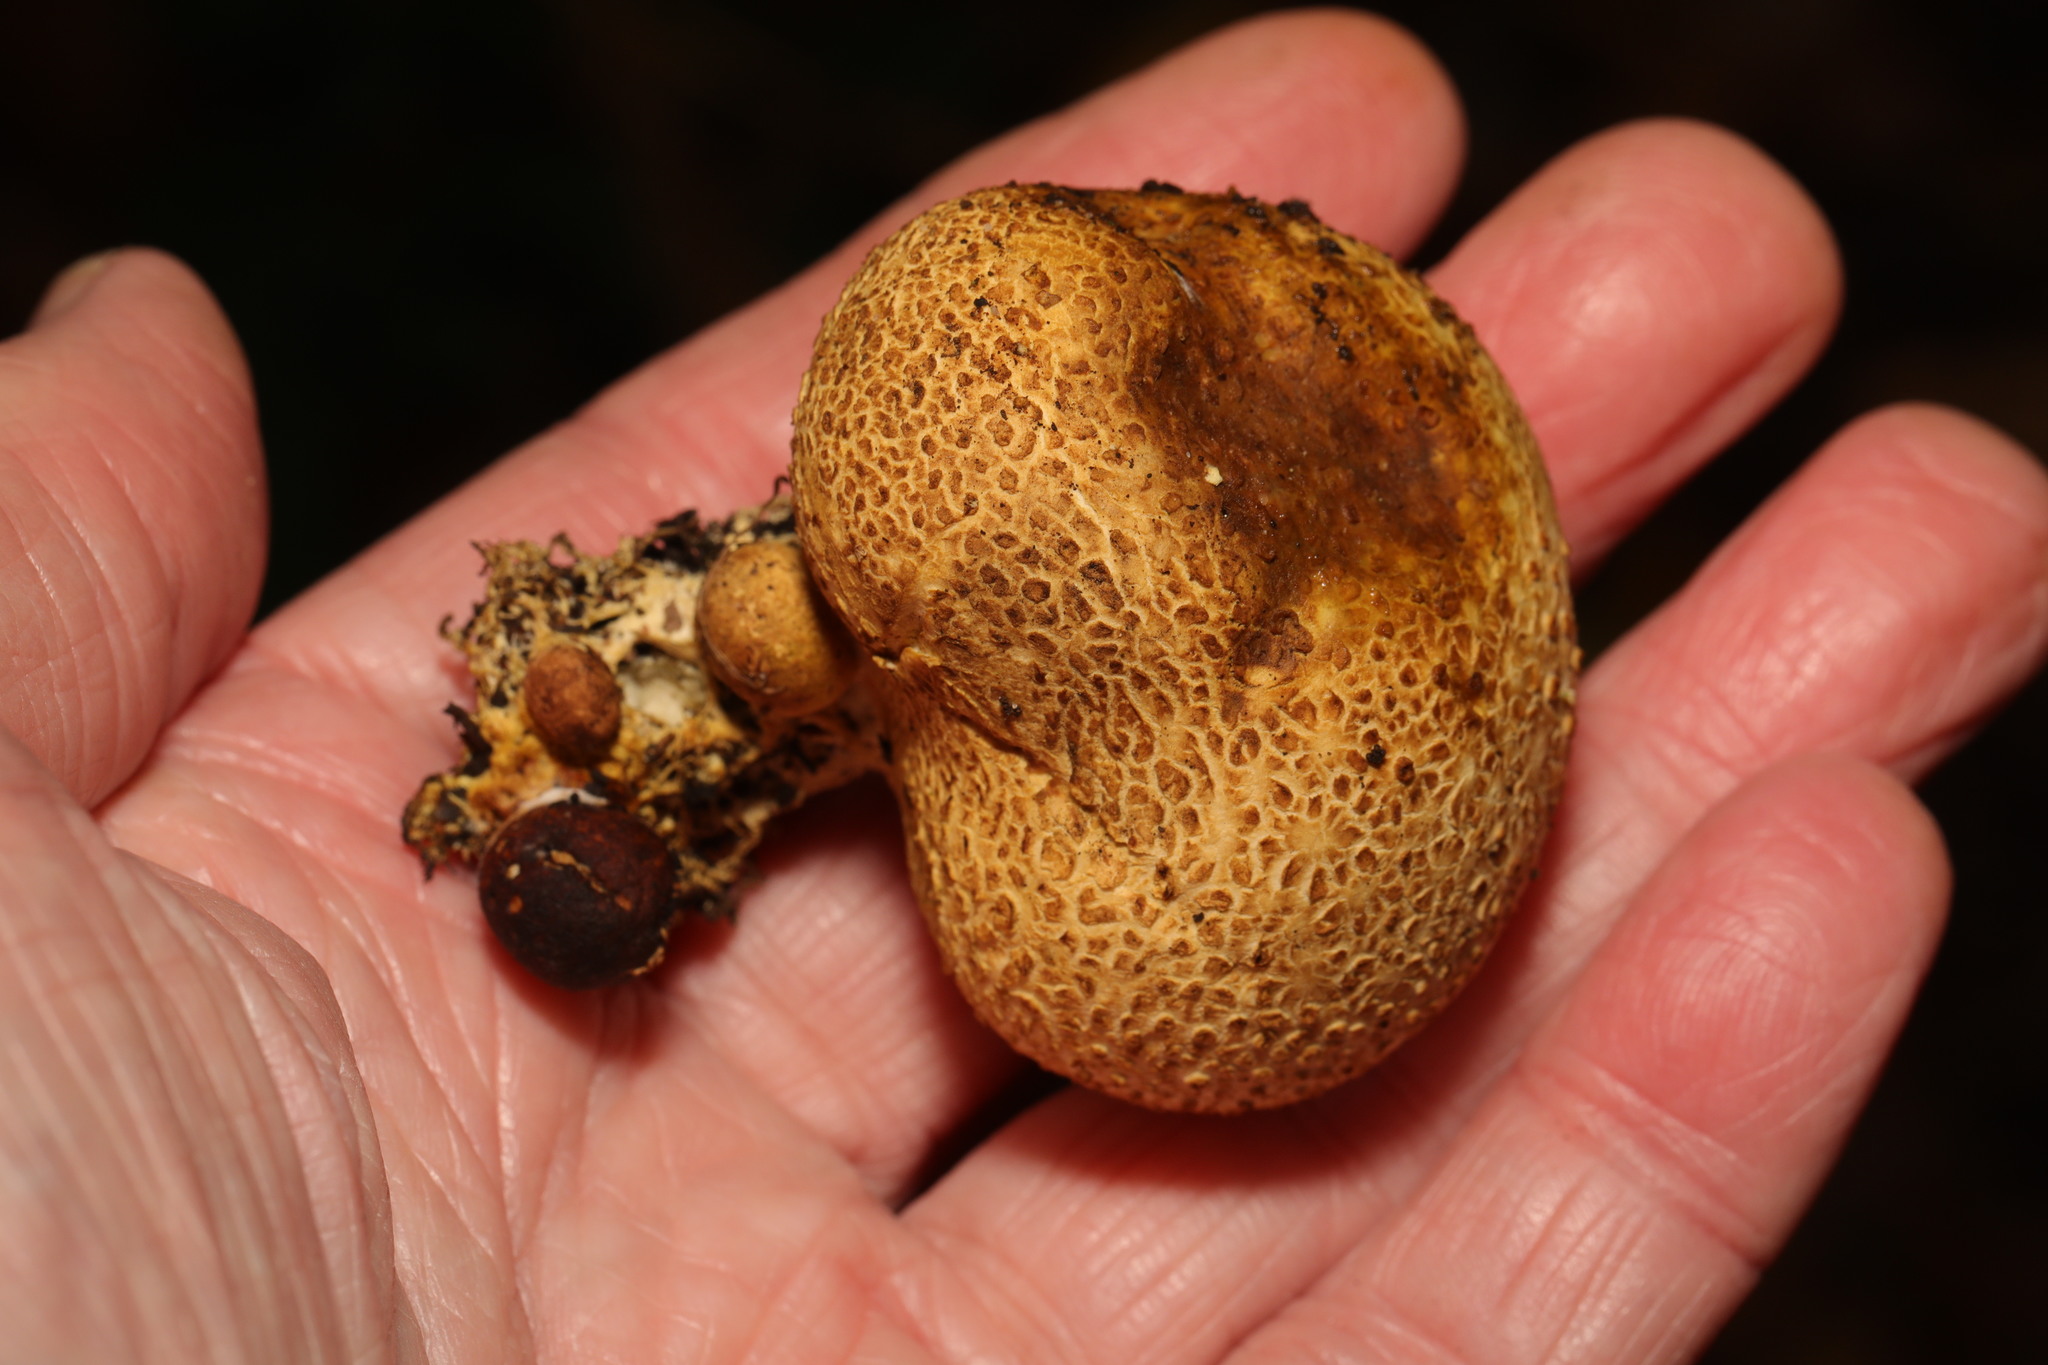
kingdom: Fungi
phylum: Basidiomycota
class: Agaricomycetes
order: Boletales
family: Sclerodermataceae
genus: Scleroderma
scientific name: Scleroderma citrinum
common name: Common earthball
